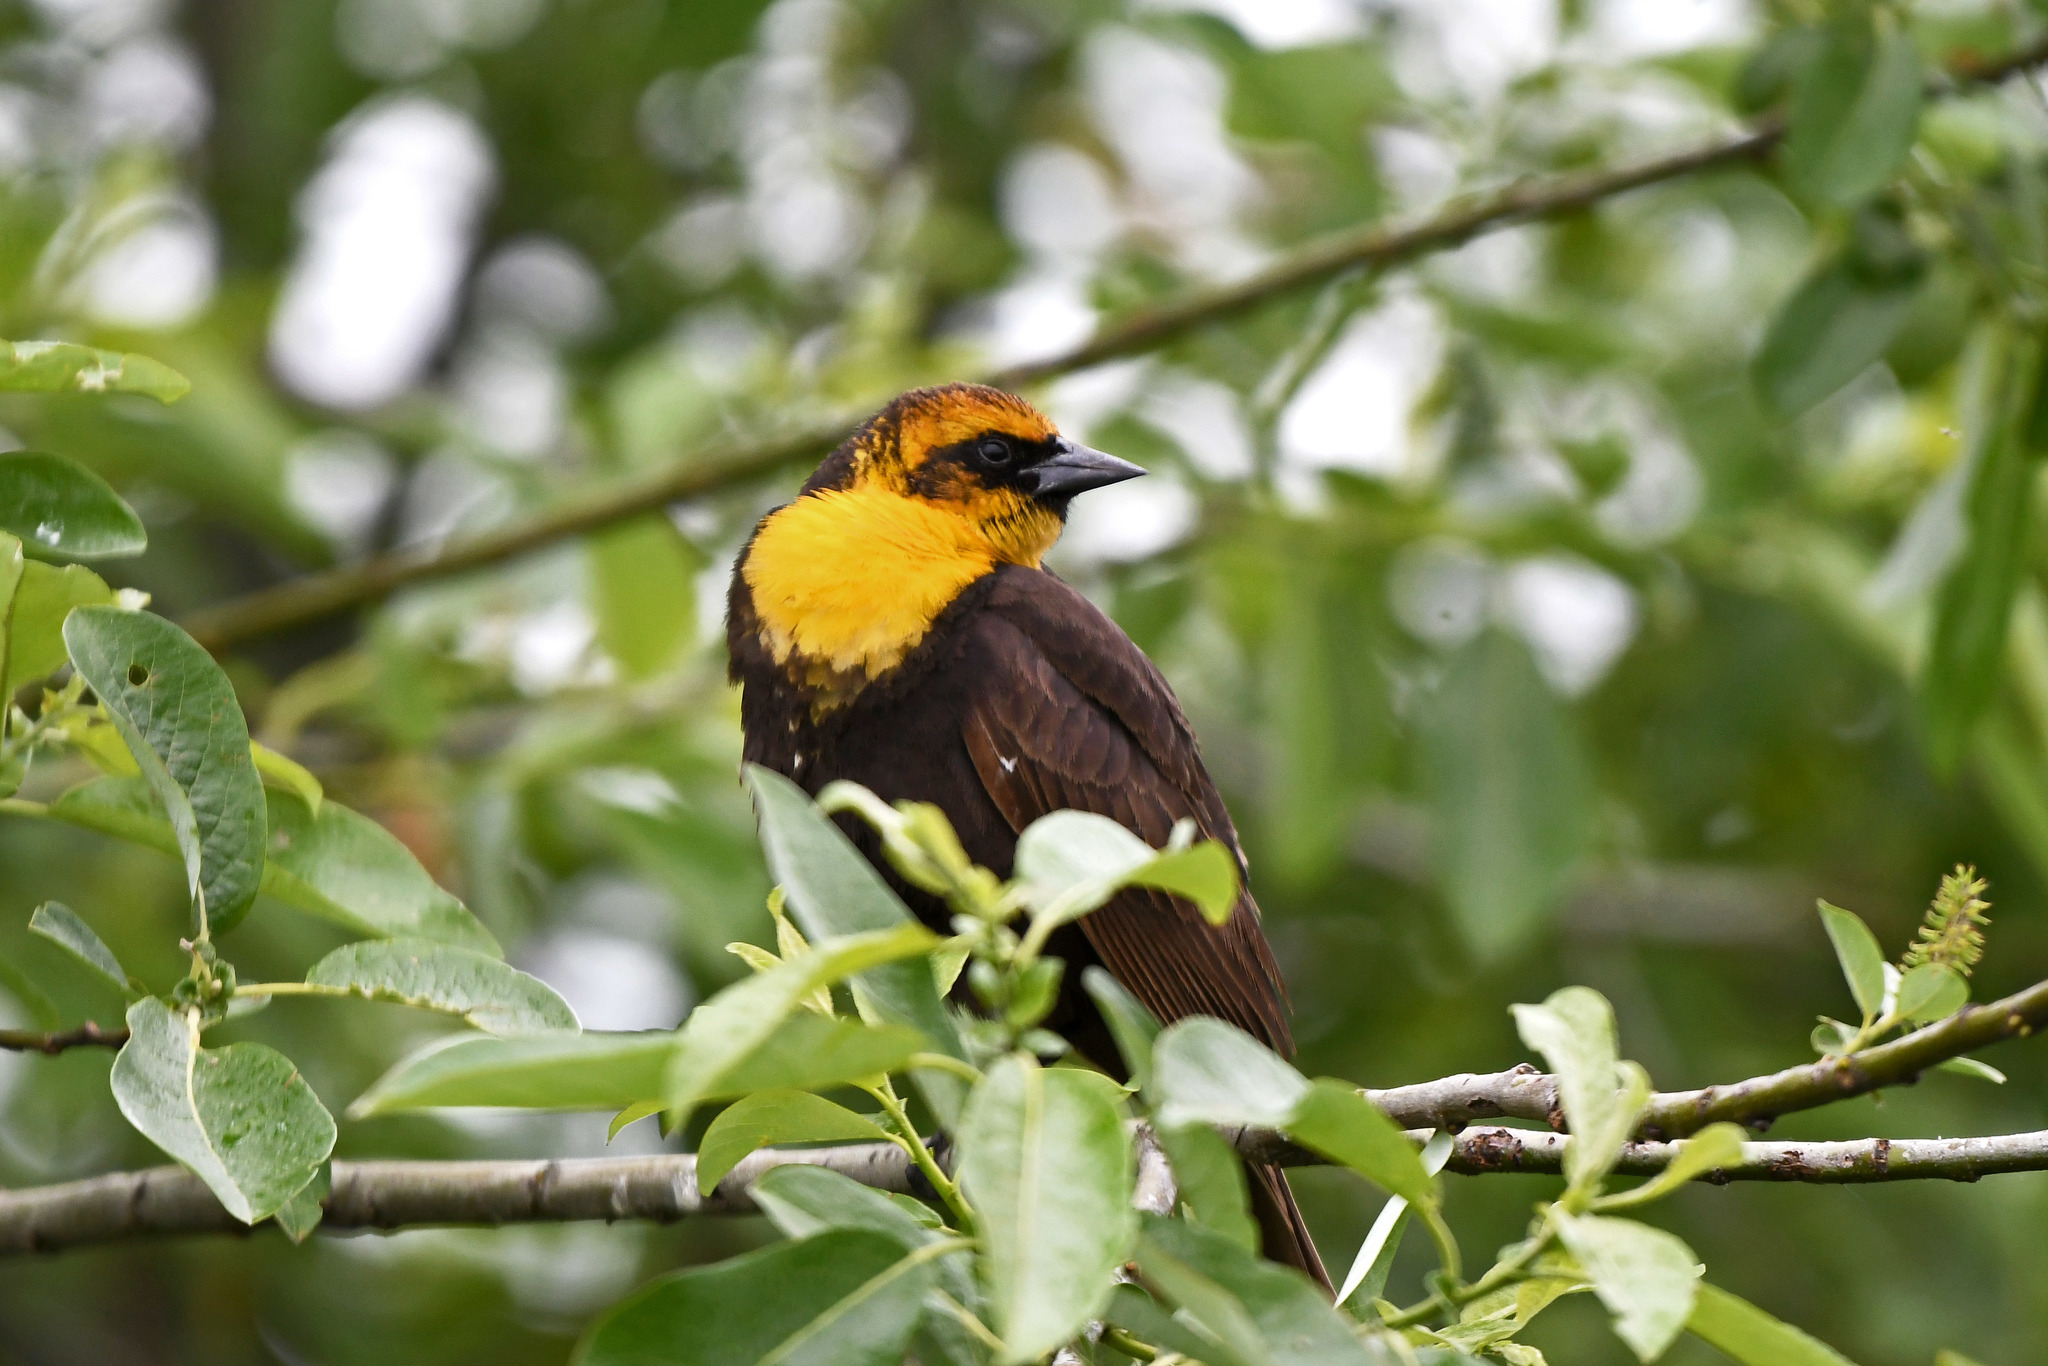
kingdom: Animalia
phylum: Chordata
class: Aves
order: Passeriformes
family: Icteridae
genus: Xanthocephalus
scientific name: Xanthocephalus xanthocephalus
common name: Yellow-headed blackbird
